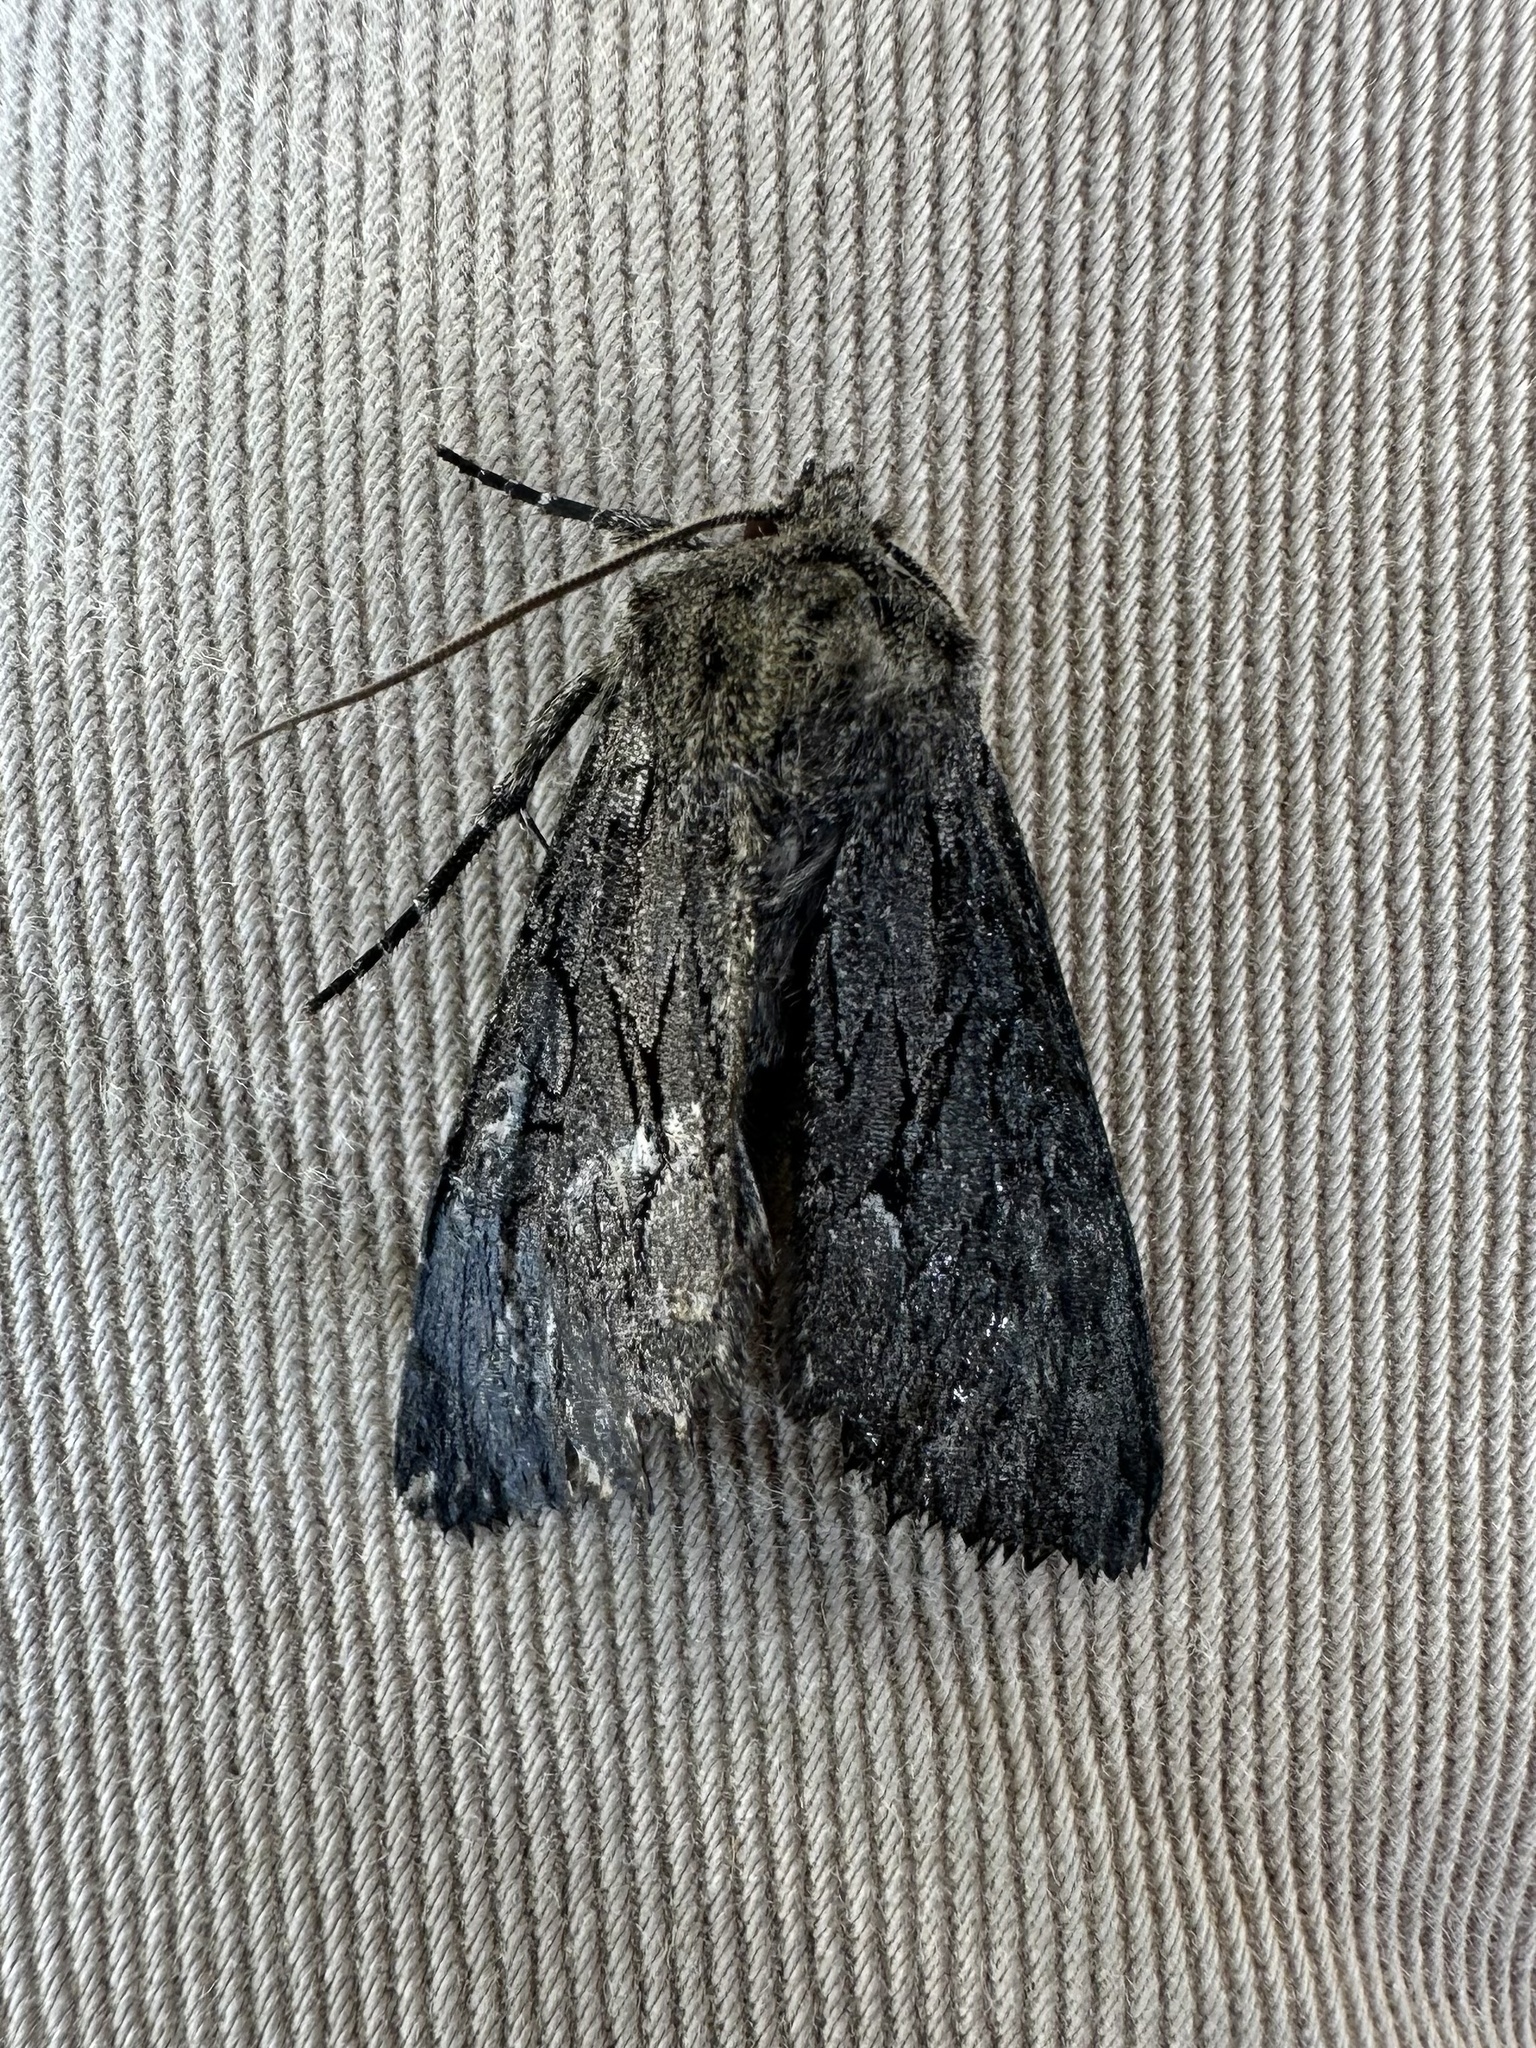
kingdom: Animalia
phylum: Arthropoda
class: Insecta
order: Lepidoptera
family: Noctuidae
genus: Fishia
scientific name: Fishia yosemitae
